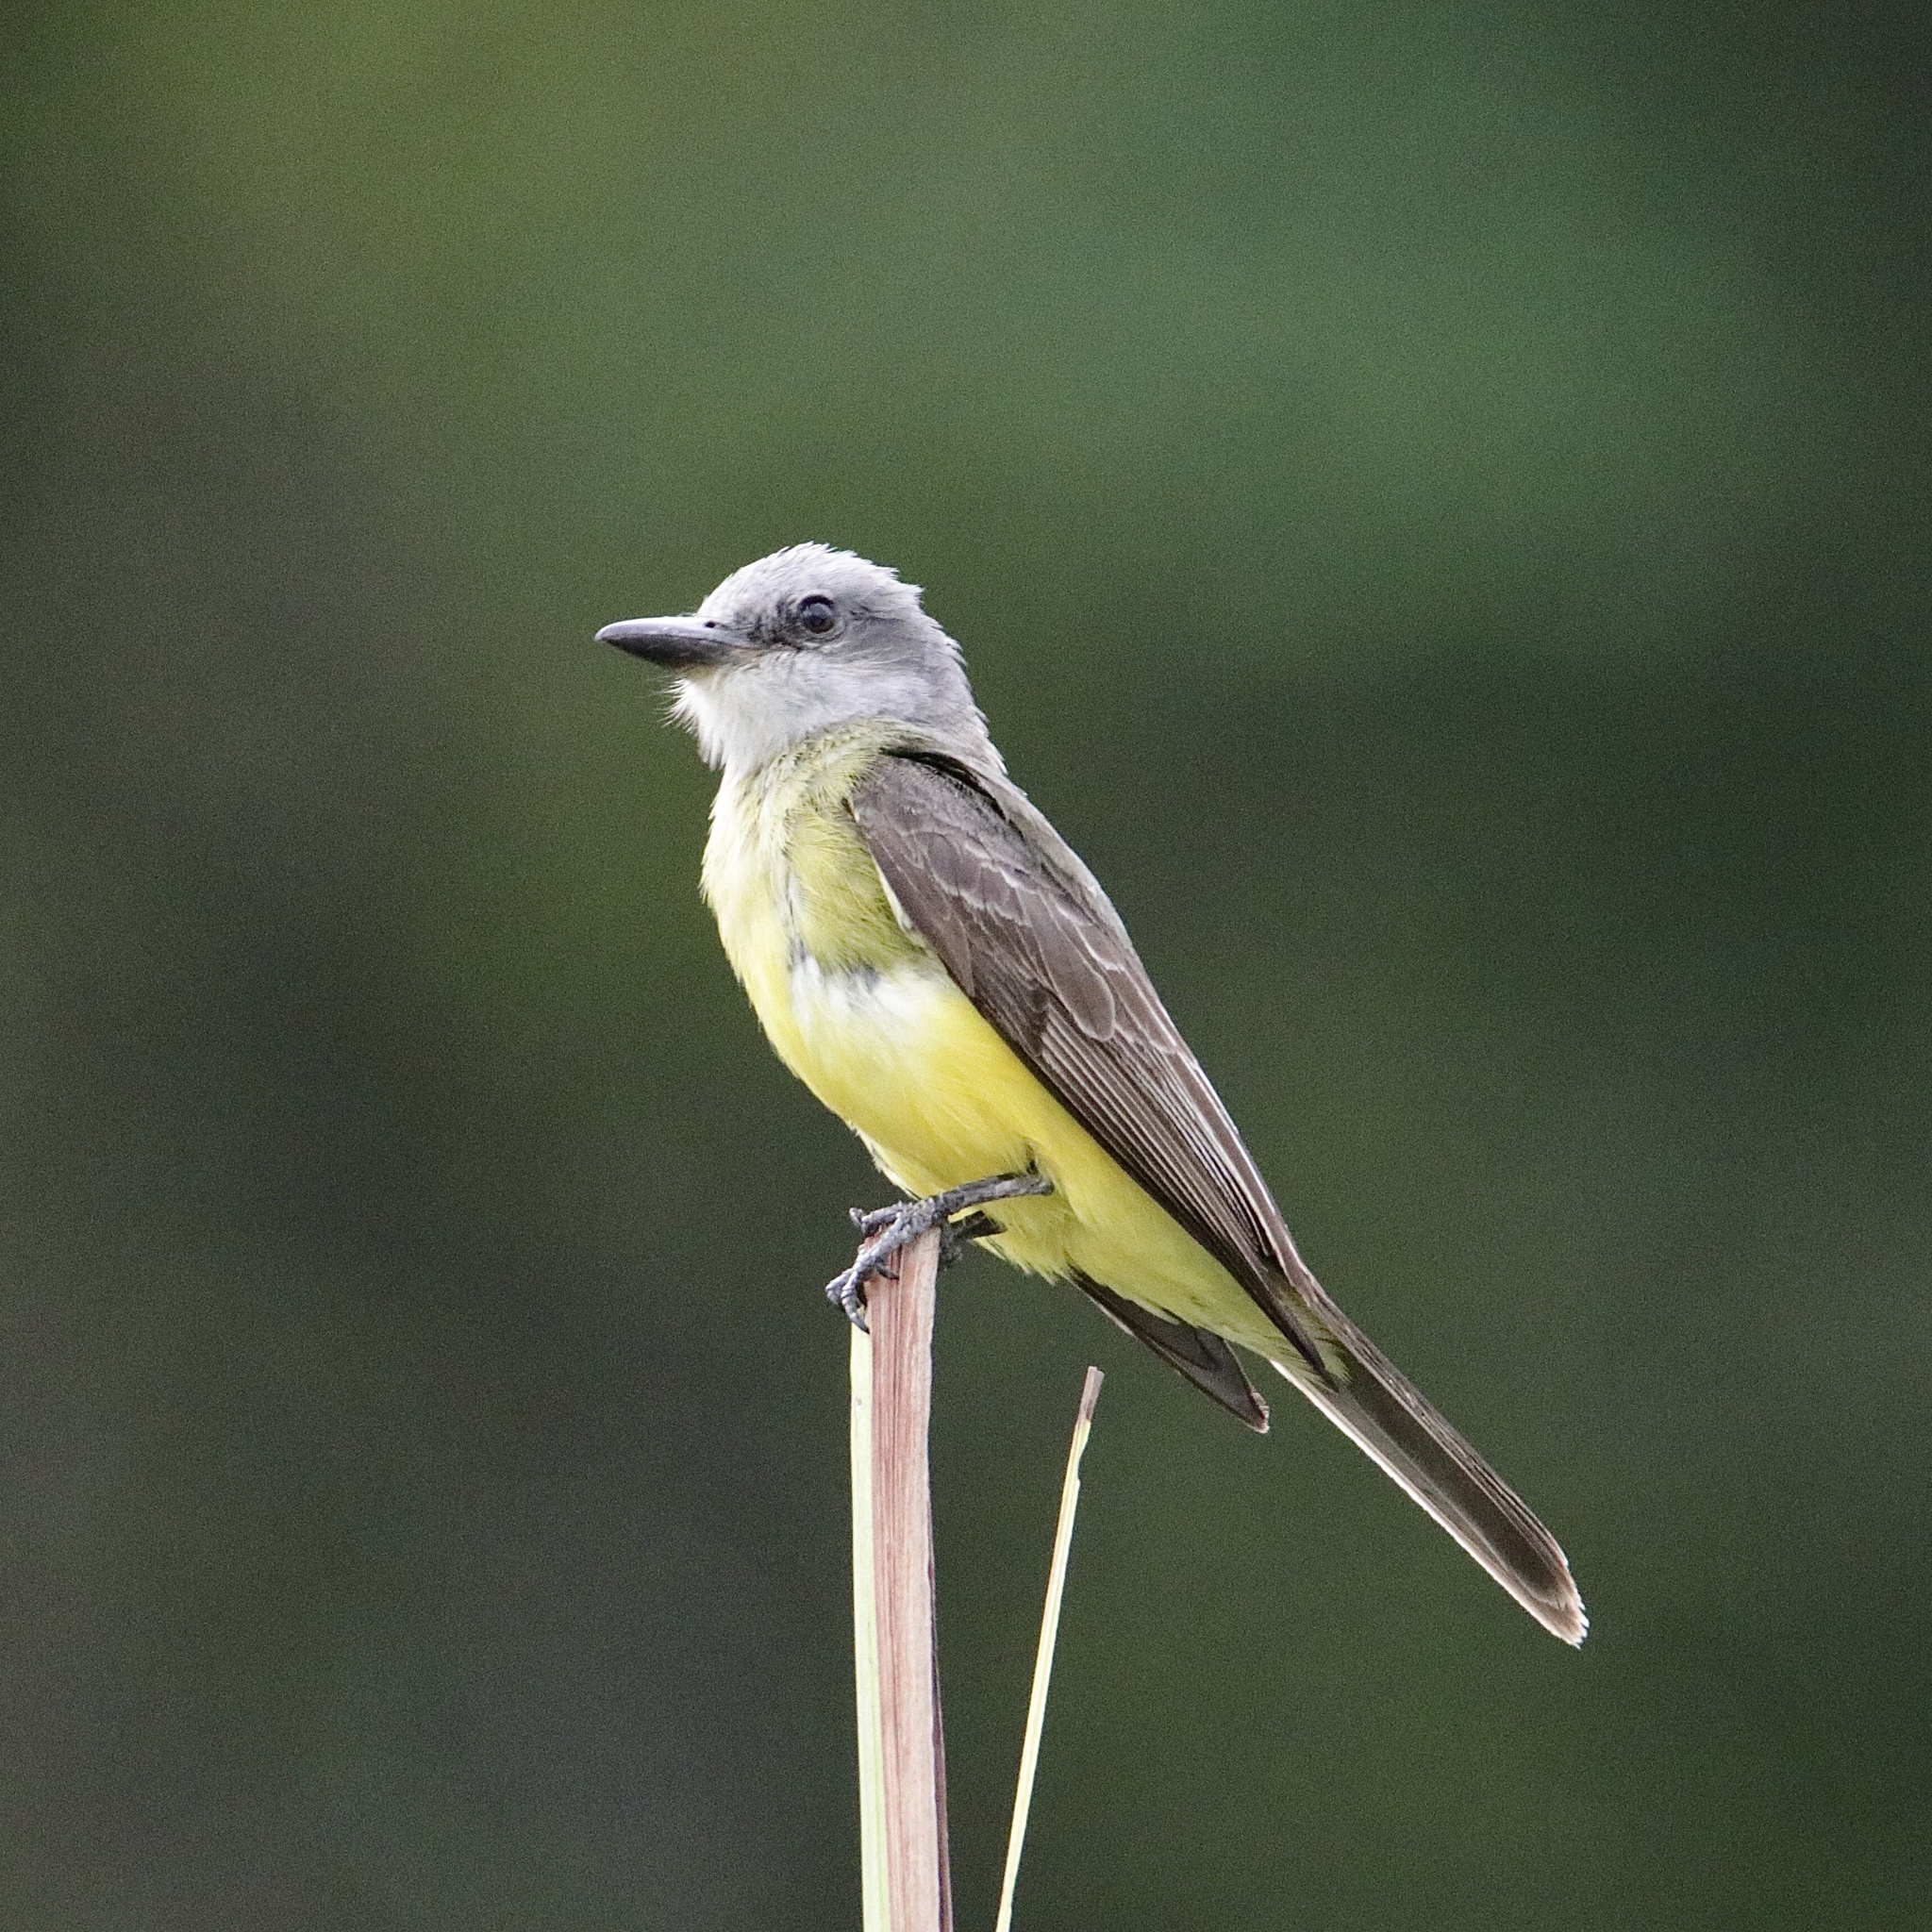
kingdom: Animalia
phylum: Chordata
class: Aves
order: Passeriformes
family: Tyrannidae
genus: Tyrannus
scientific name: Tyrannus melancholicus
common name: Tropical kingbird
